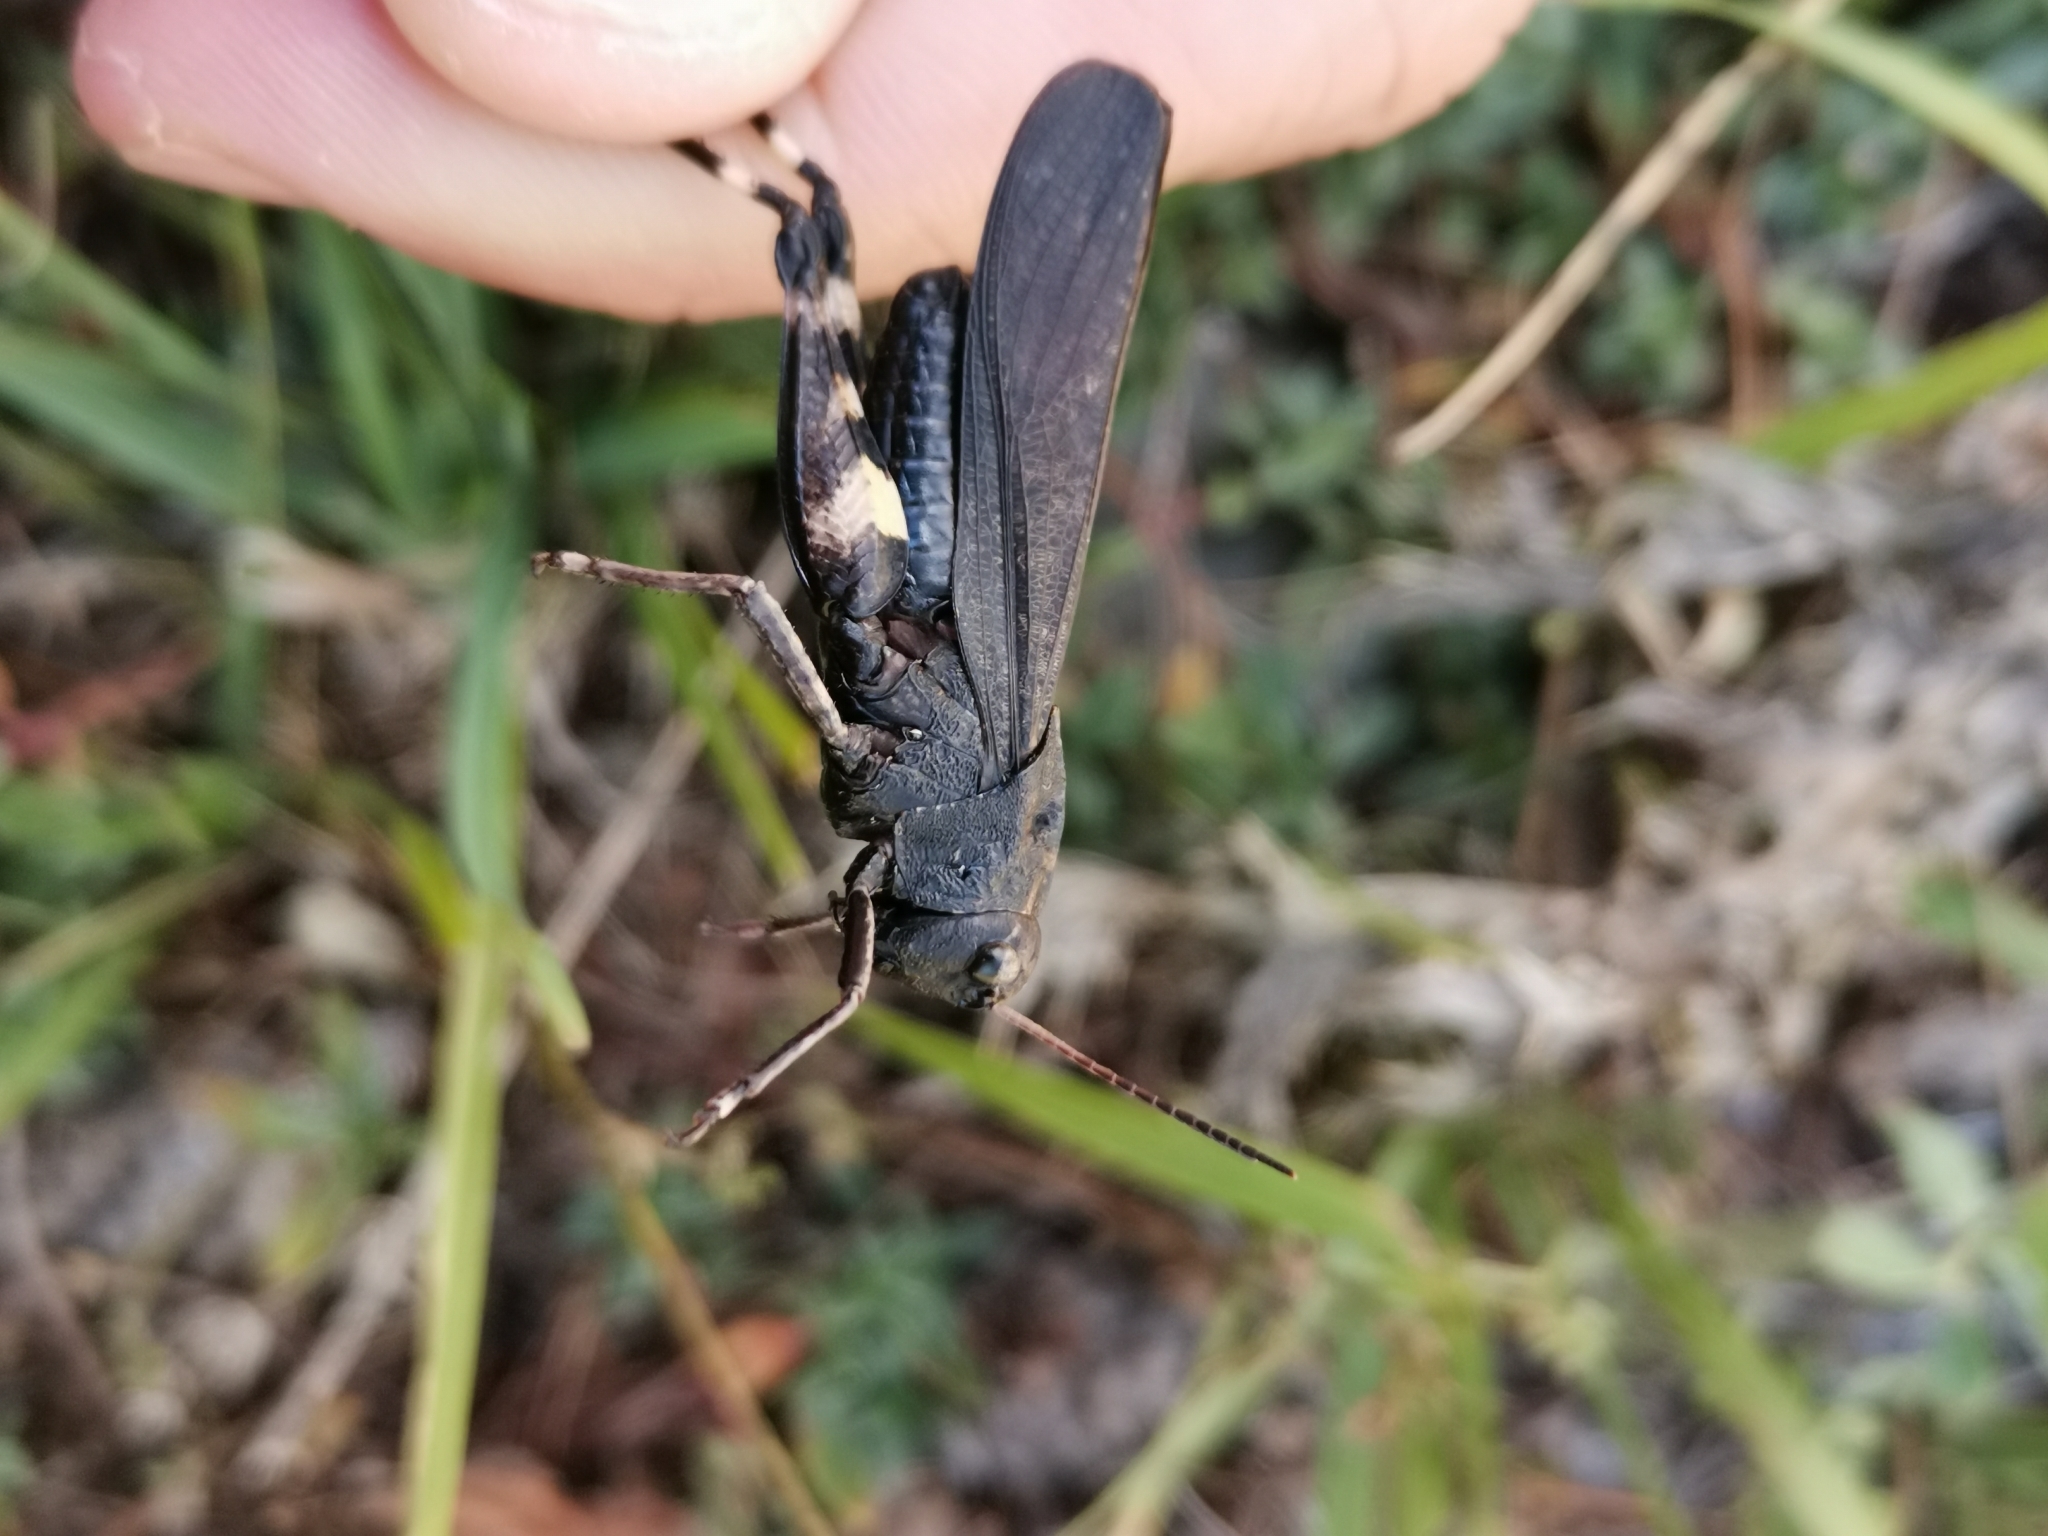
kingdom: Animalia
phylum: Arthropoda
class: Insecta
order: Orthoptera
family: Acrididae
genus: Psophus
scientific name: Psophus stridulus
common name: Rattle grasshopper
